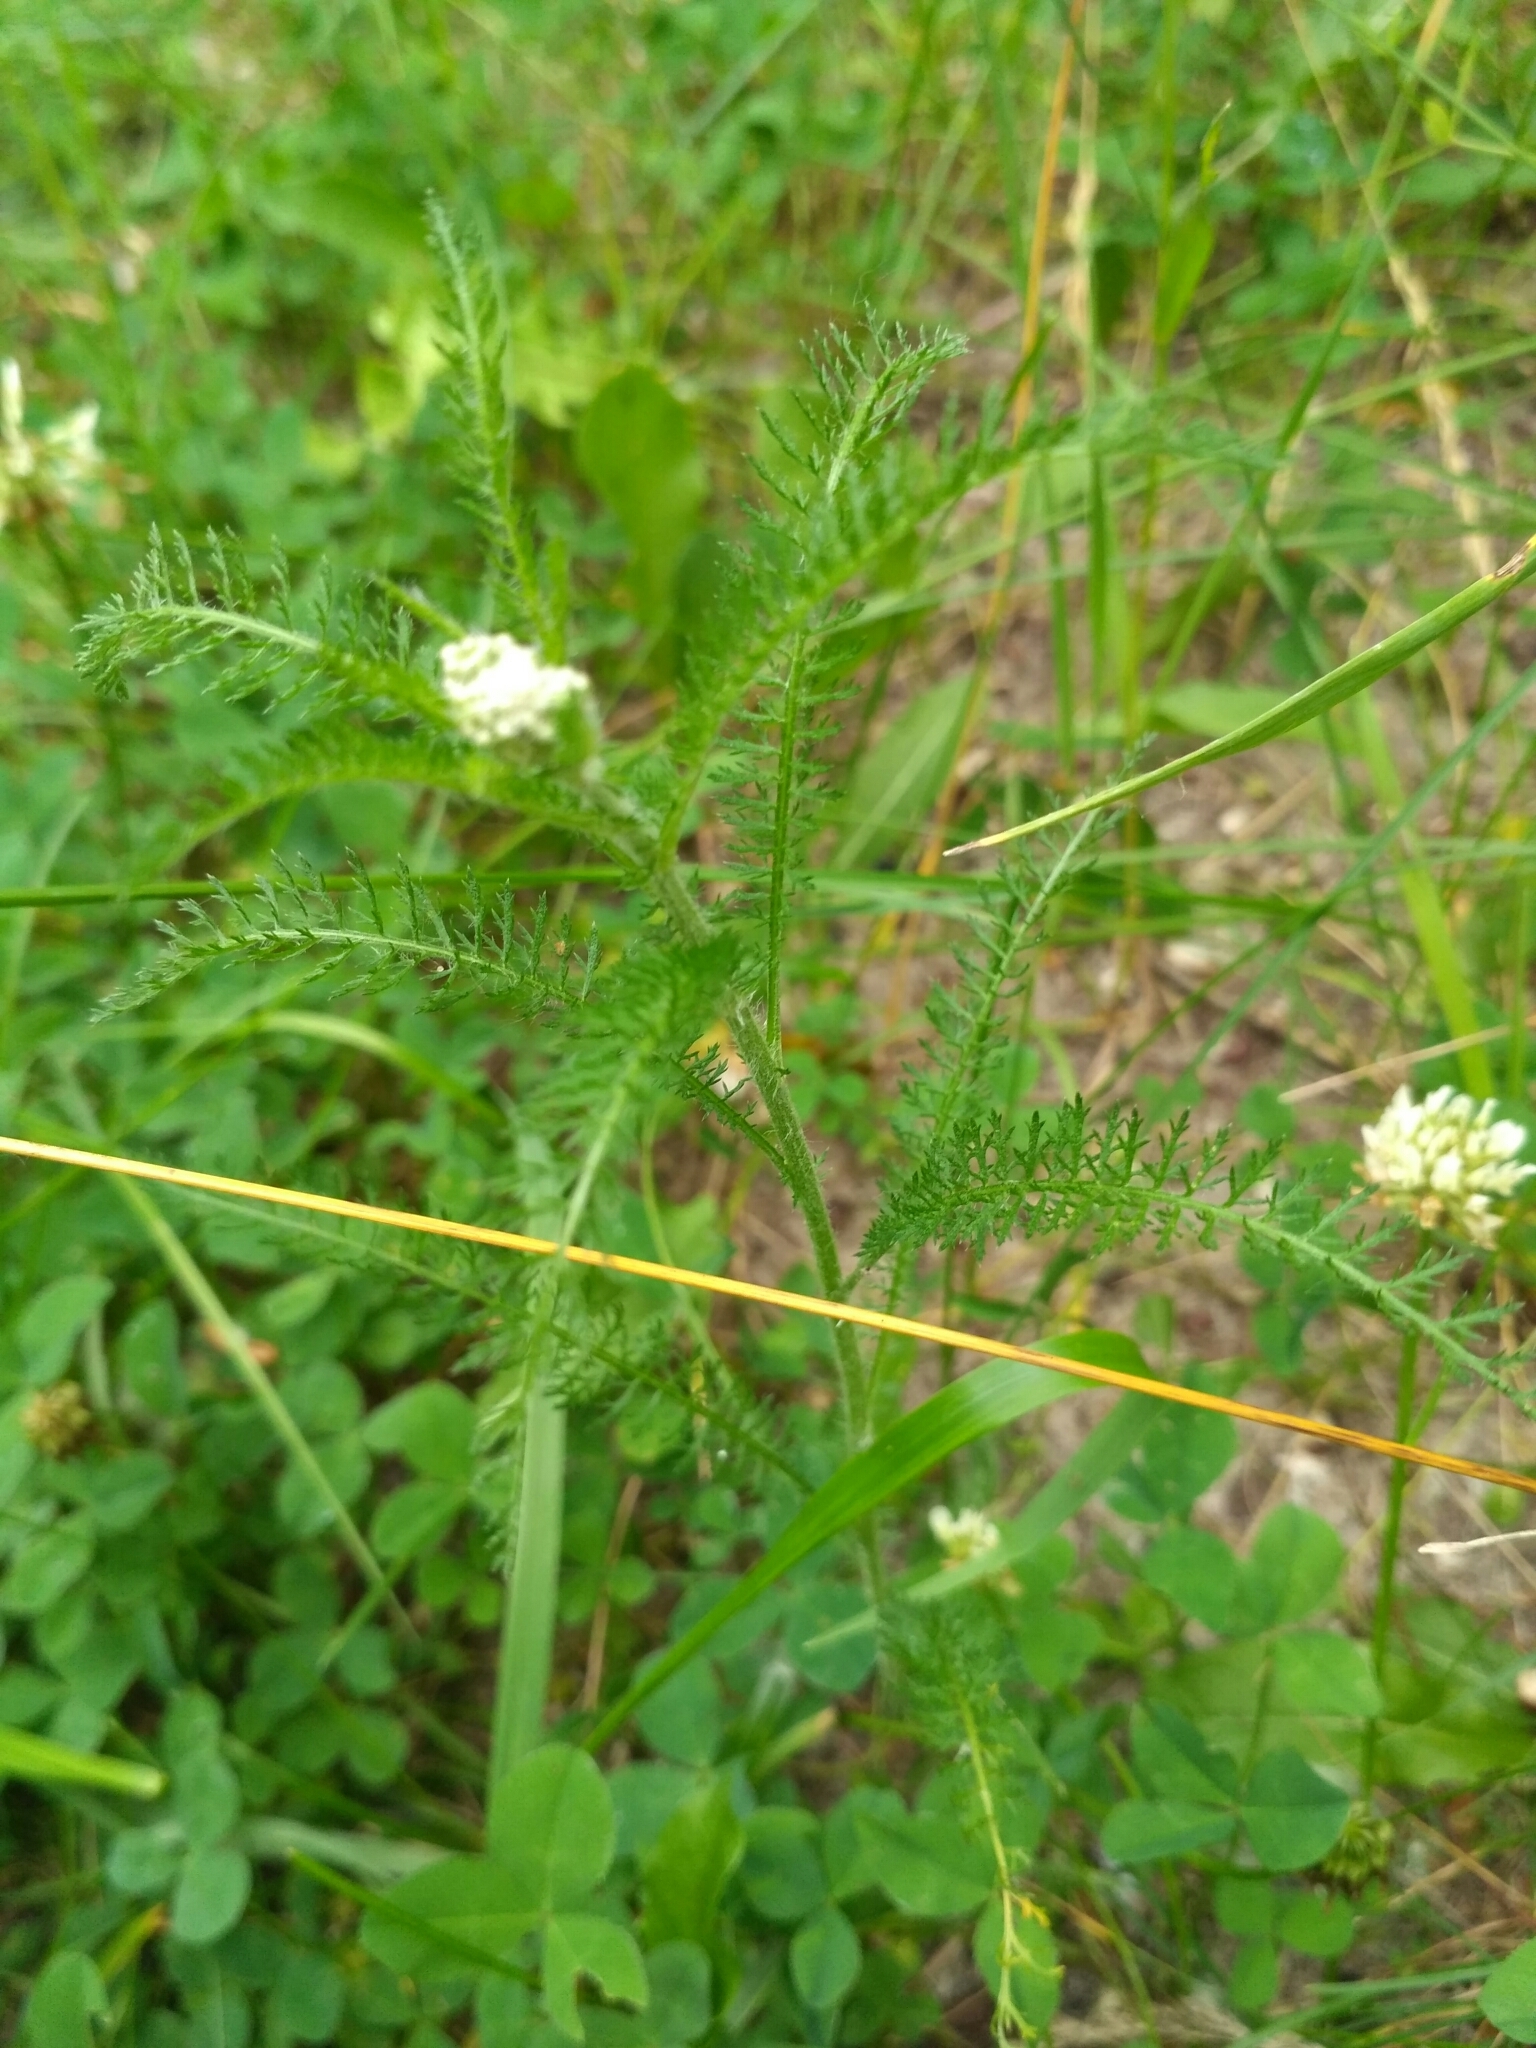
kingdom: Plantae
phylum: Tracheophyta
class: Magnoliopsida
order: Asterales
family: Asteraceae
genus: Achillea
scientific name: Achillea millefolium
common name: Yarrow
